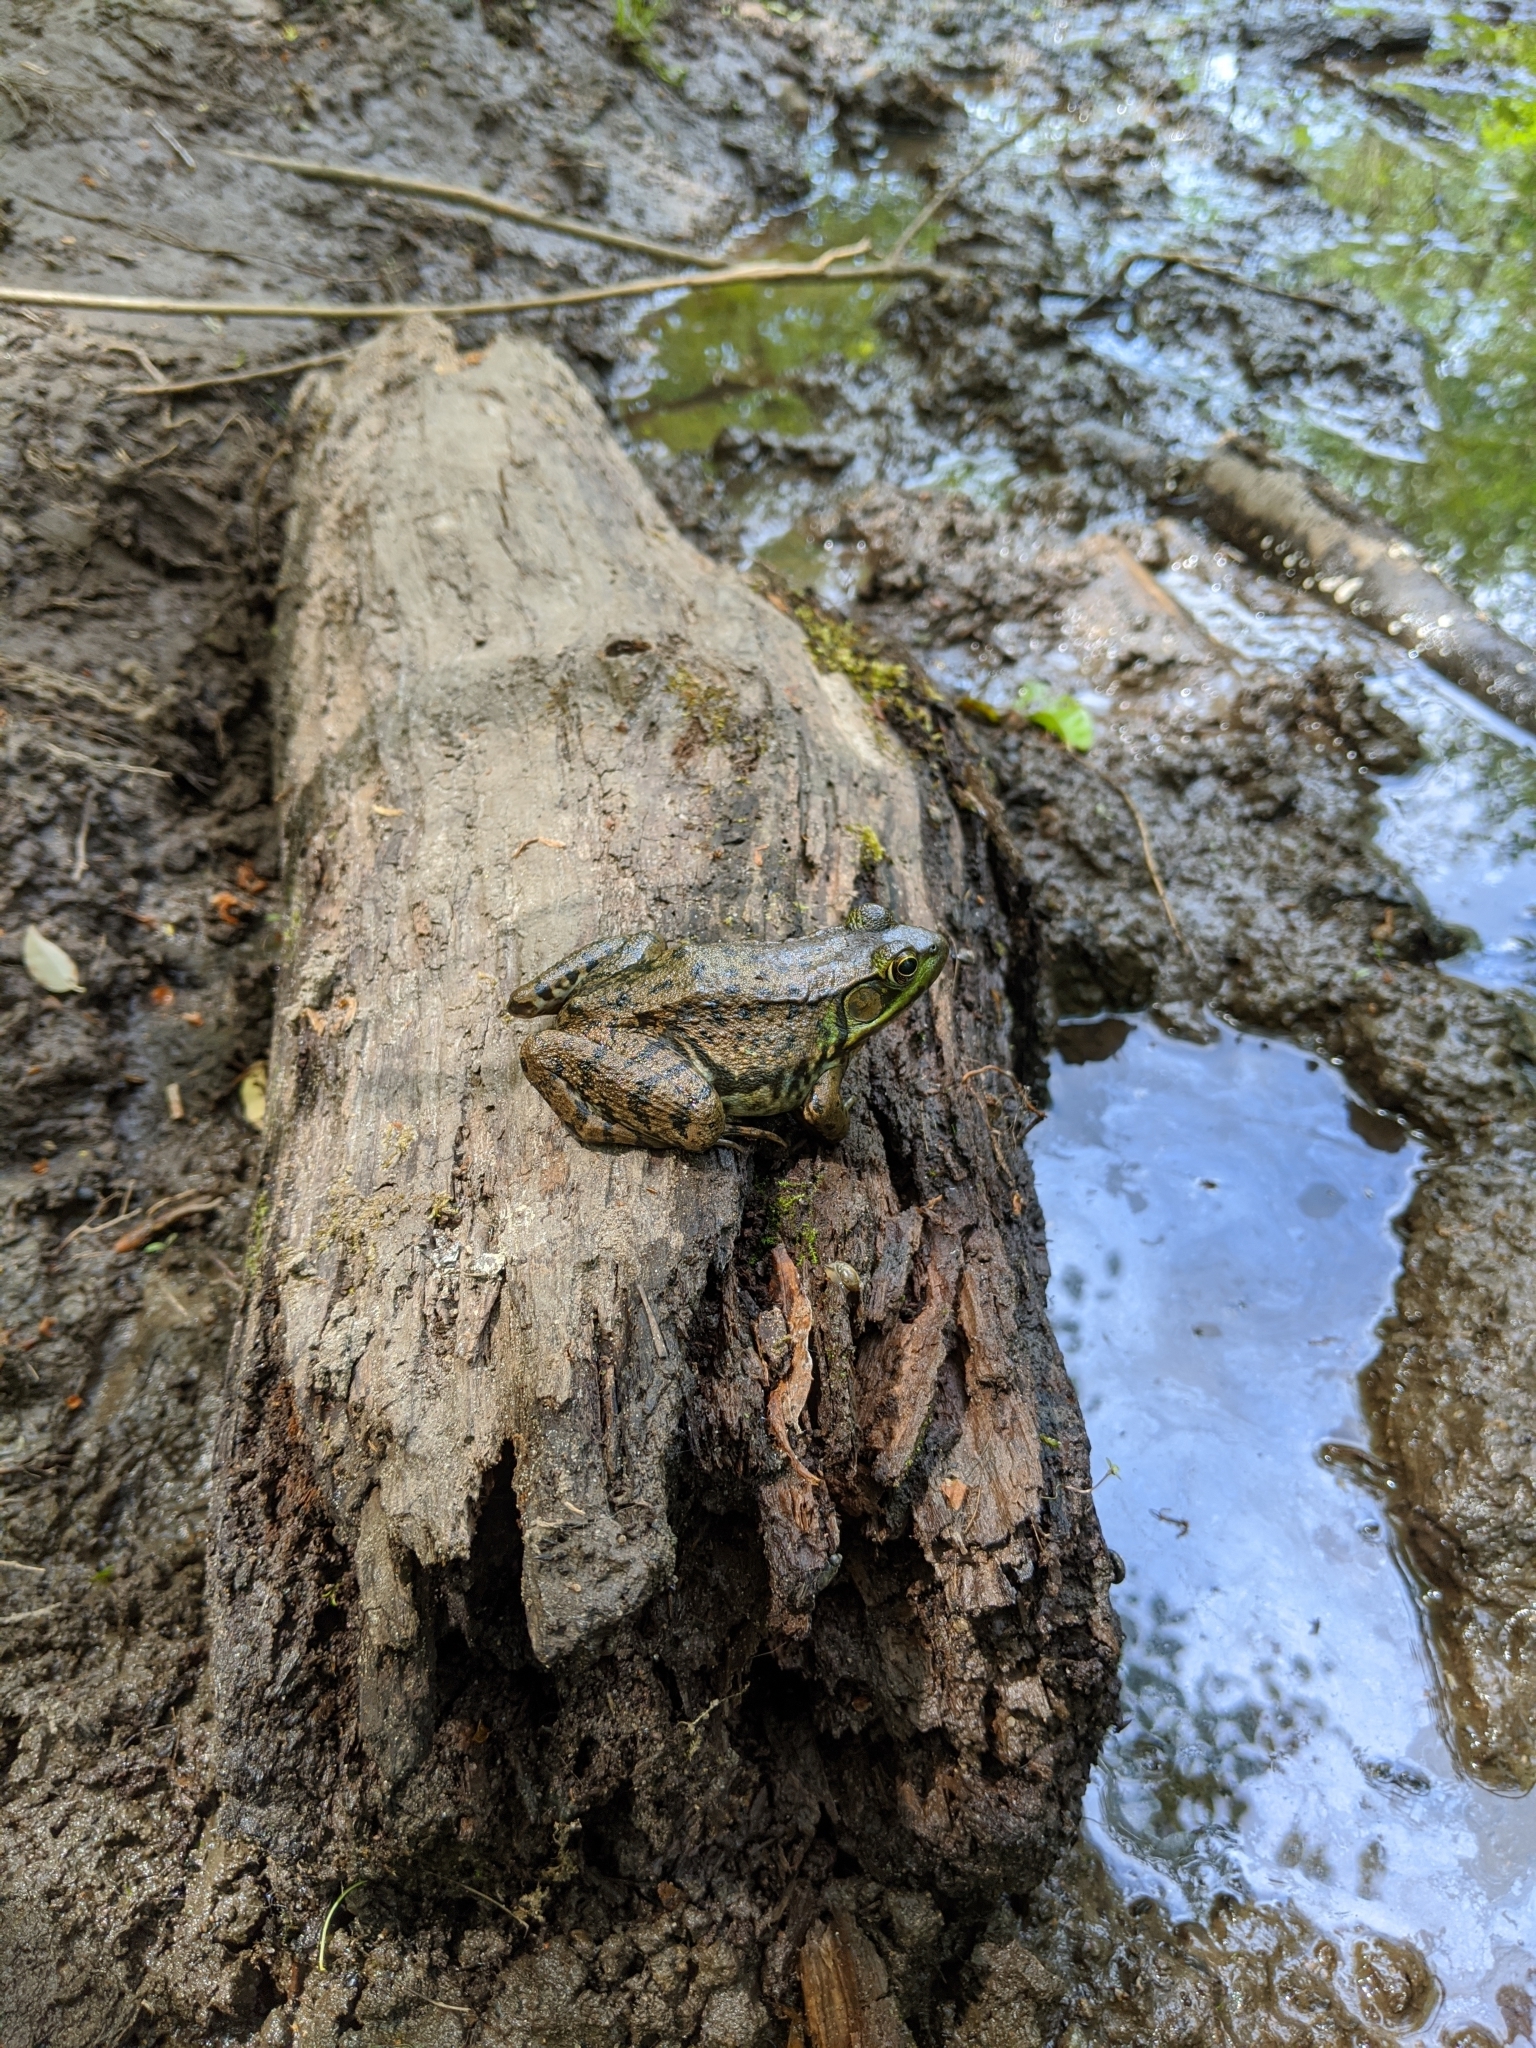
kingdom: Animalia
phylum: Chordata
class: Amphibia
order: Anura
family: Ranidae
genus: Lithobates
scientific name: Lithobates clamitans
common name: Green frog
